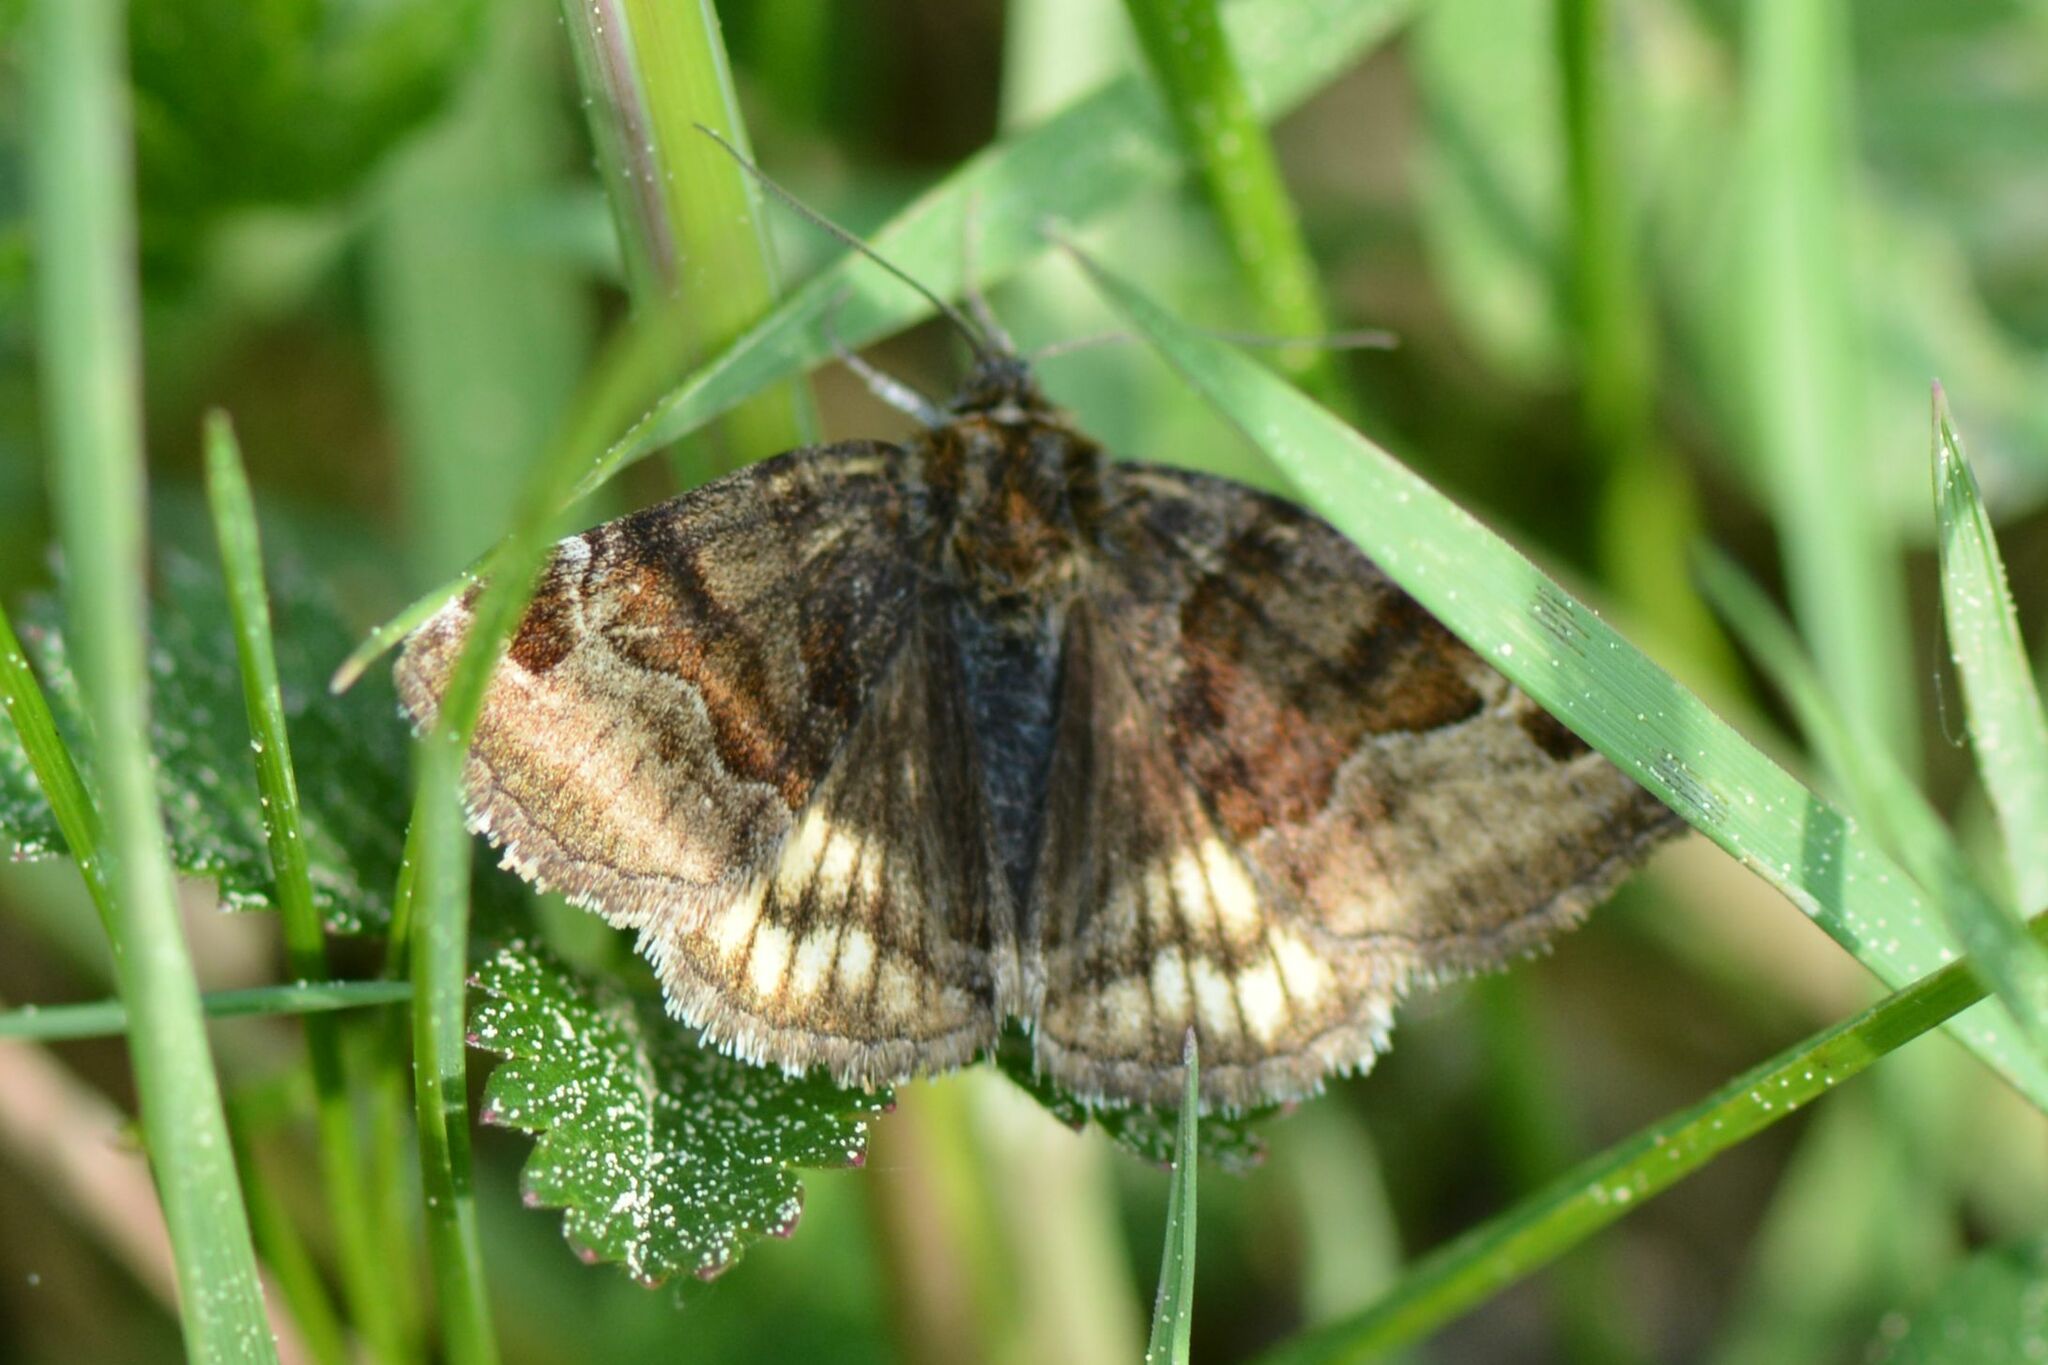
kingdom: Animalia
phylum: Arthropoda
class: Insecta
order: Lepidoptera
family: Erebidae
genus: Euclidia
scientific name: Euclidia glyphica
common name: Burnet companion
